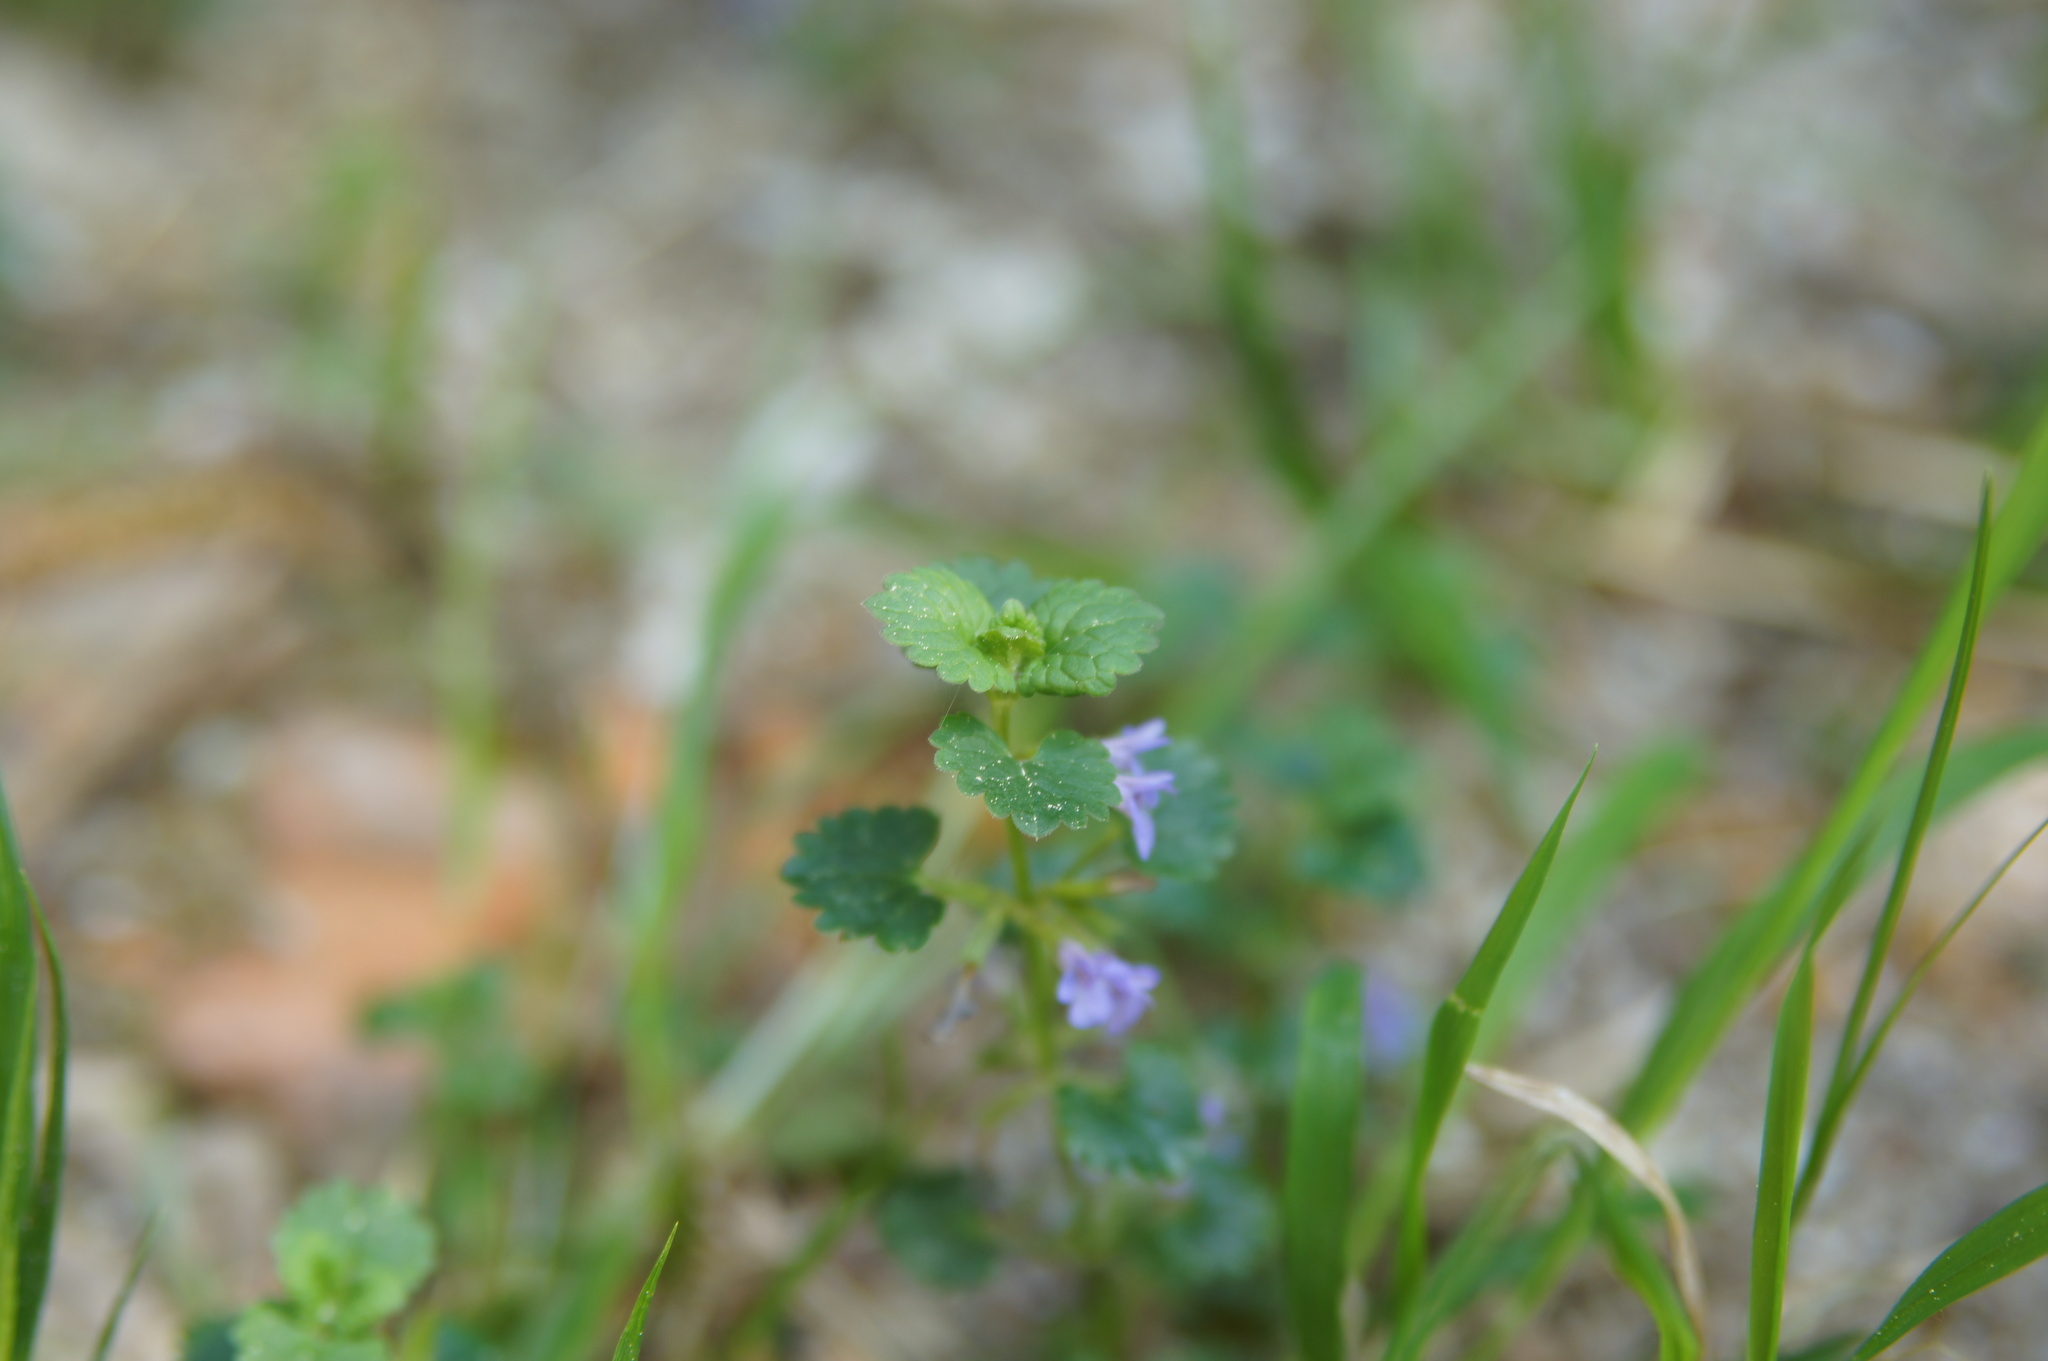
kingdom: Plantae
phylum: Tracheophyta
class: Magnoliopsida
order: Lamiales
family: Lamiaceae
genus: Glechoma
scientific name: Glechoma hederacea
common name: Ground ivy
